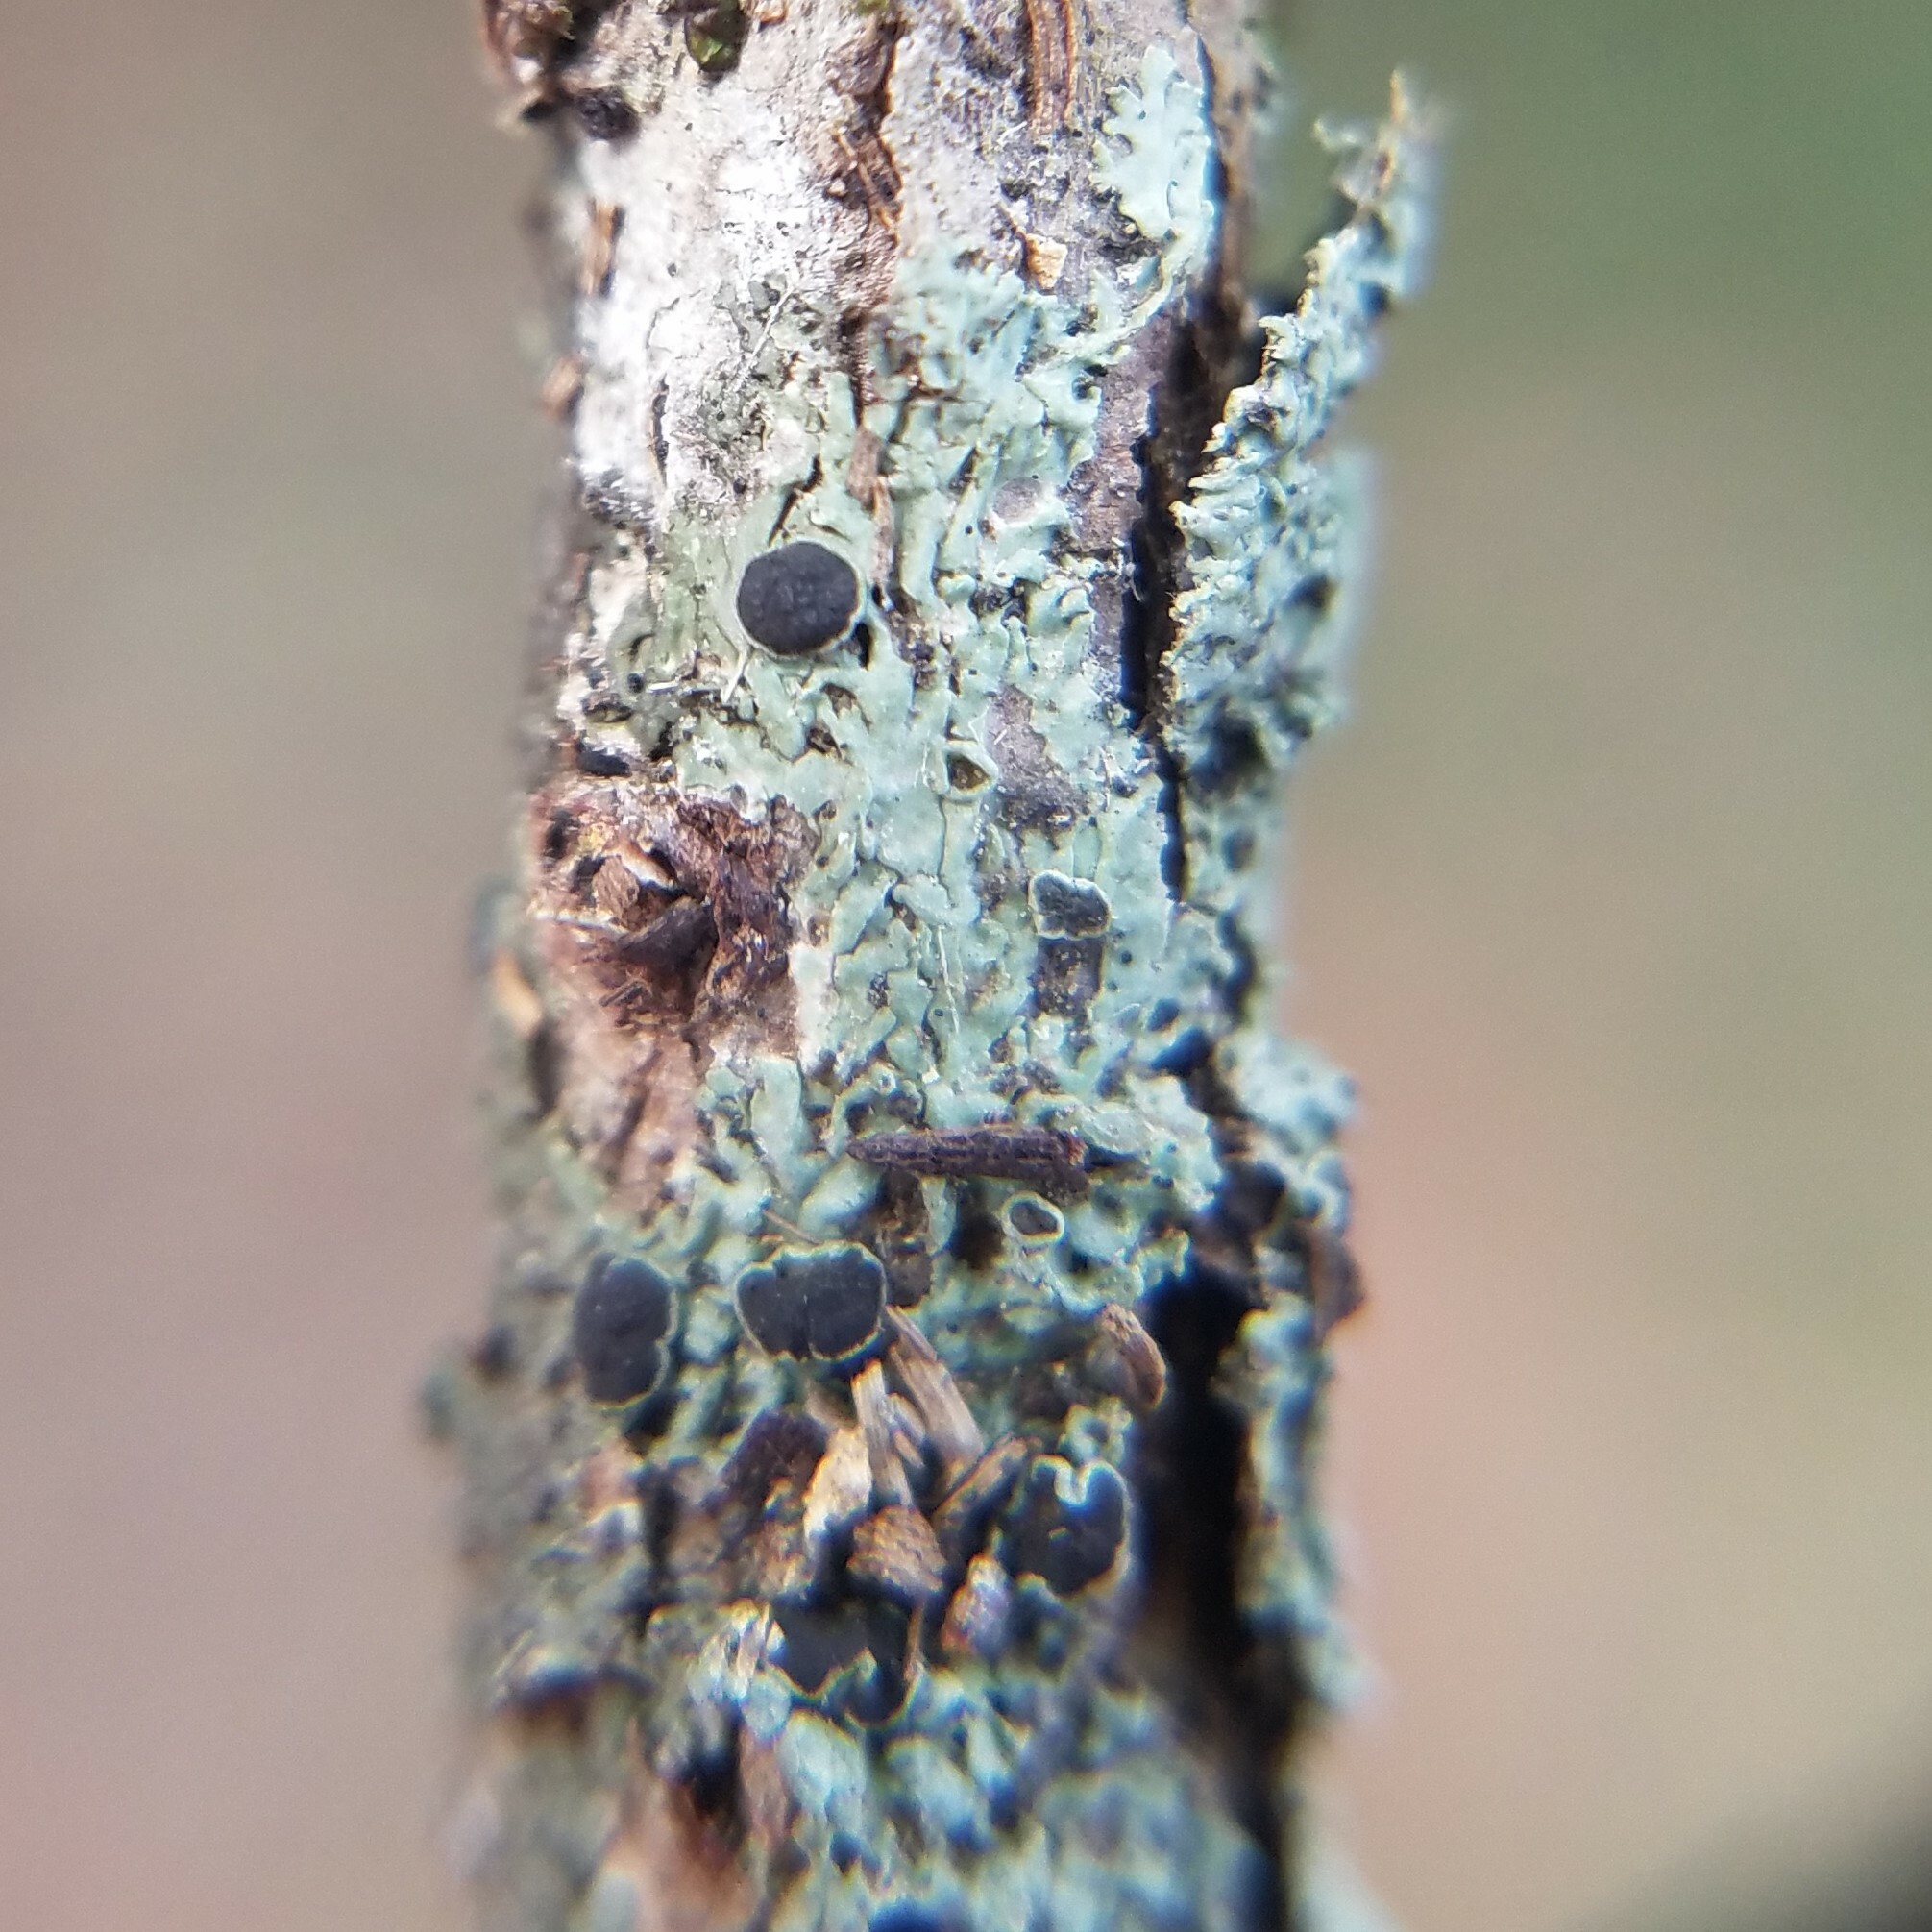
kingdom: Fungi
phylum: Ascomycota
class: Lecanoromycetes
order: Caliciales
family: Physciaceae
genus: Hyperphyscia
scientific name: Hyperphyscia syncolla
